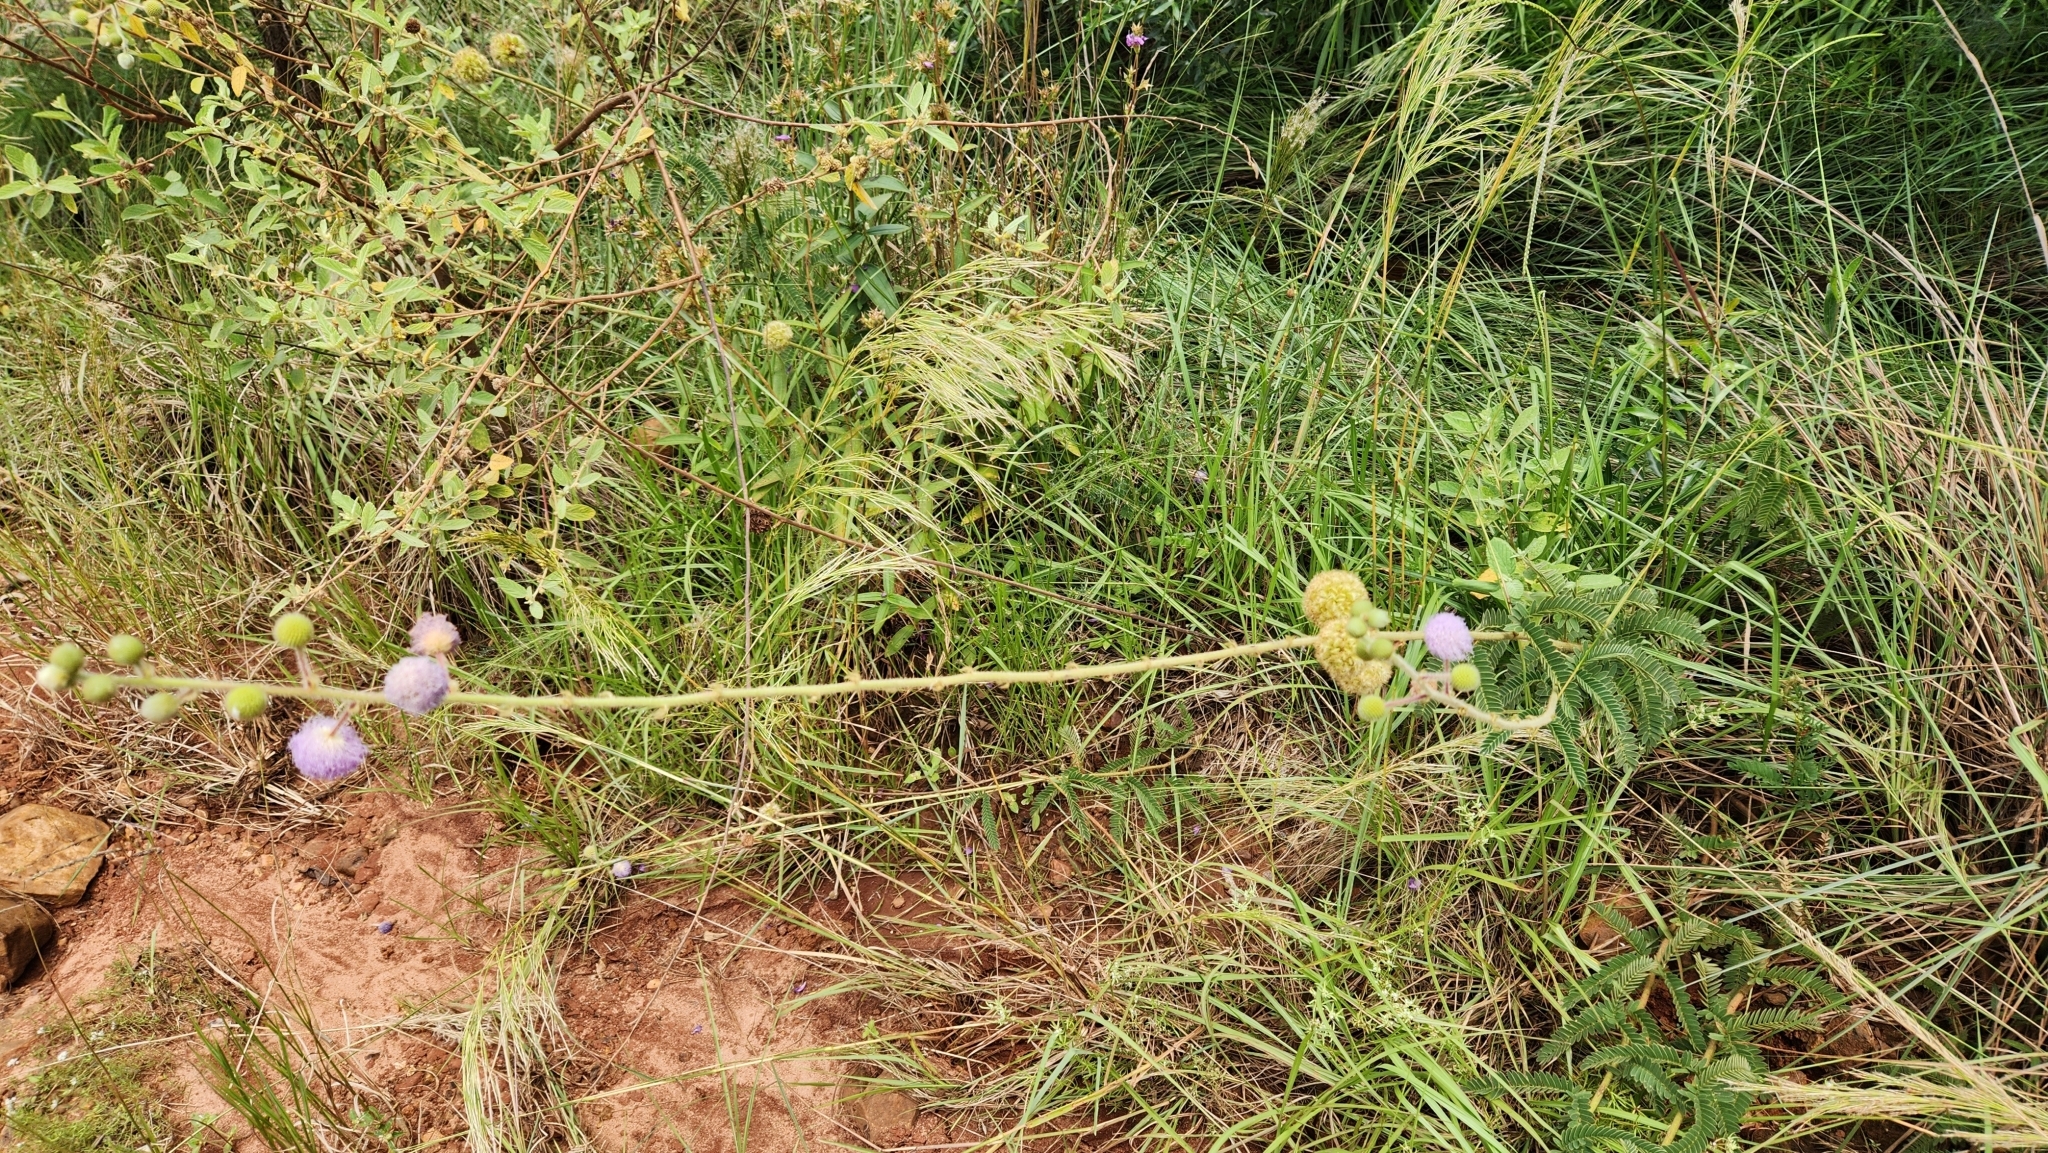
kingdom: Plantae
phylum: Tracheophyta
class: Magnoliopsida
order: Fabales
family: Fabaceae
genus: Mimosa
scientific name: Mimosa dolens
